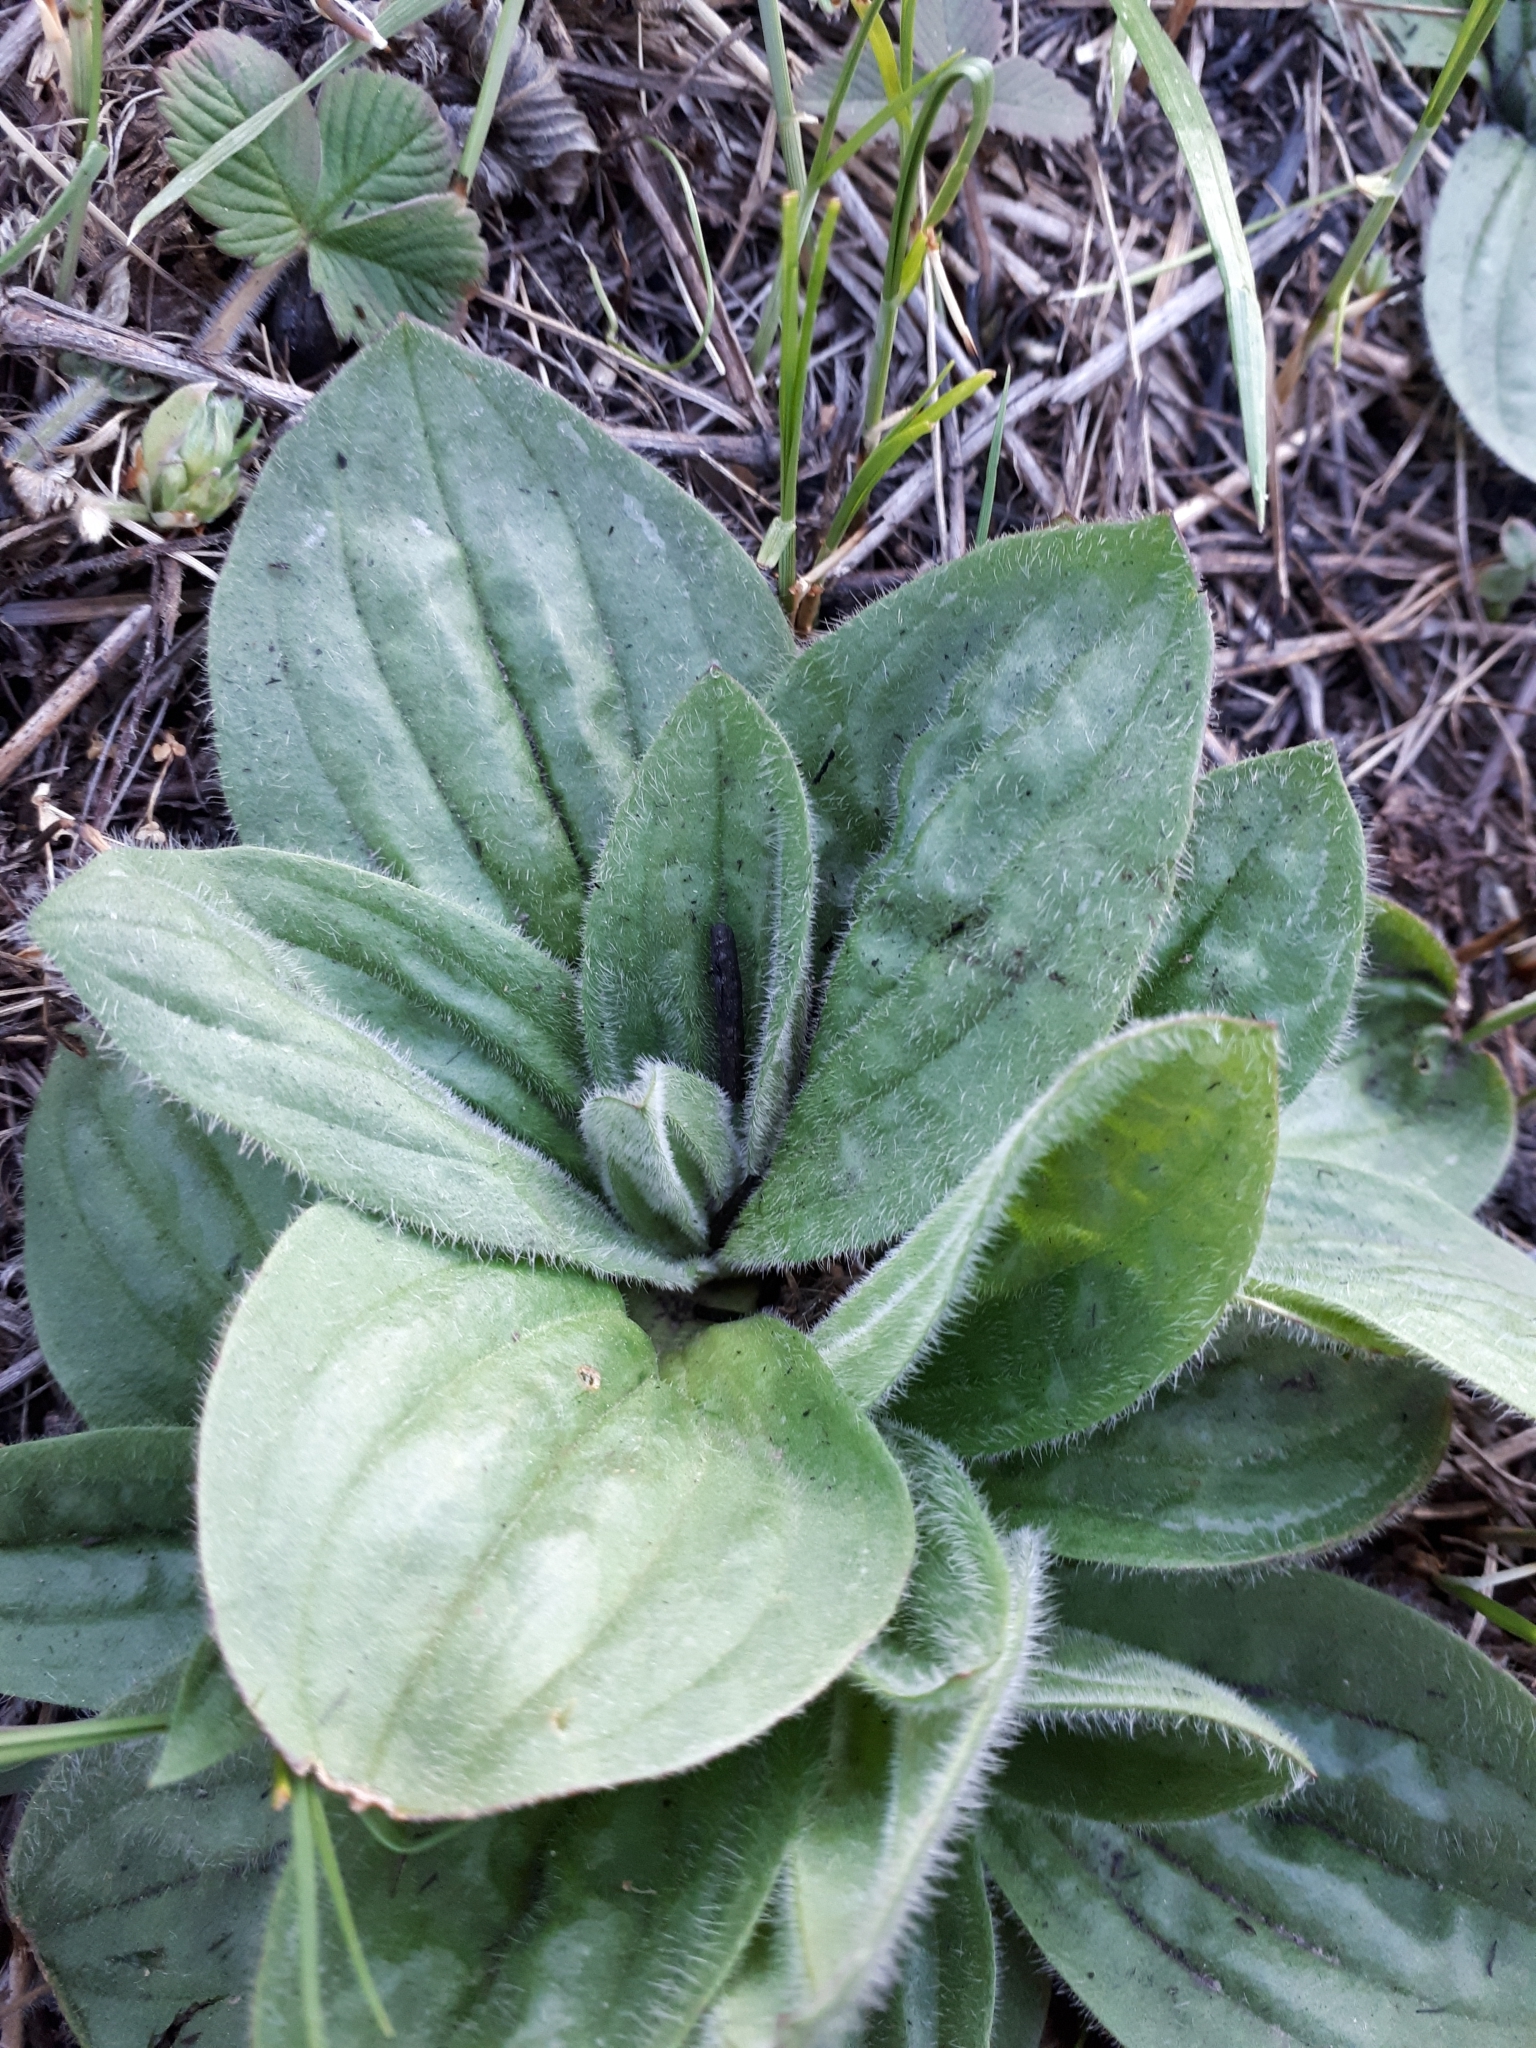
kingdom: Plantae
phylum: Tracheophyta
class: Magnoliopsida
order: Lamiales
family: Plantaginaceae
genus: Plantago
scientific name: Plantago media
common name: Hoary plantain
